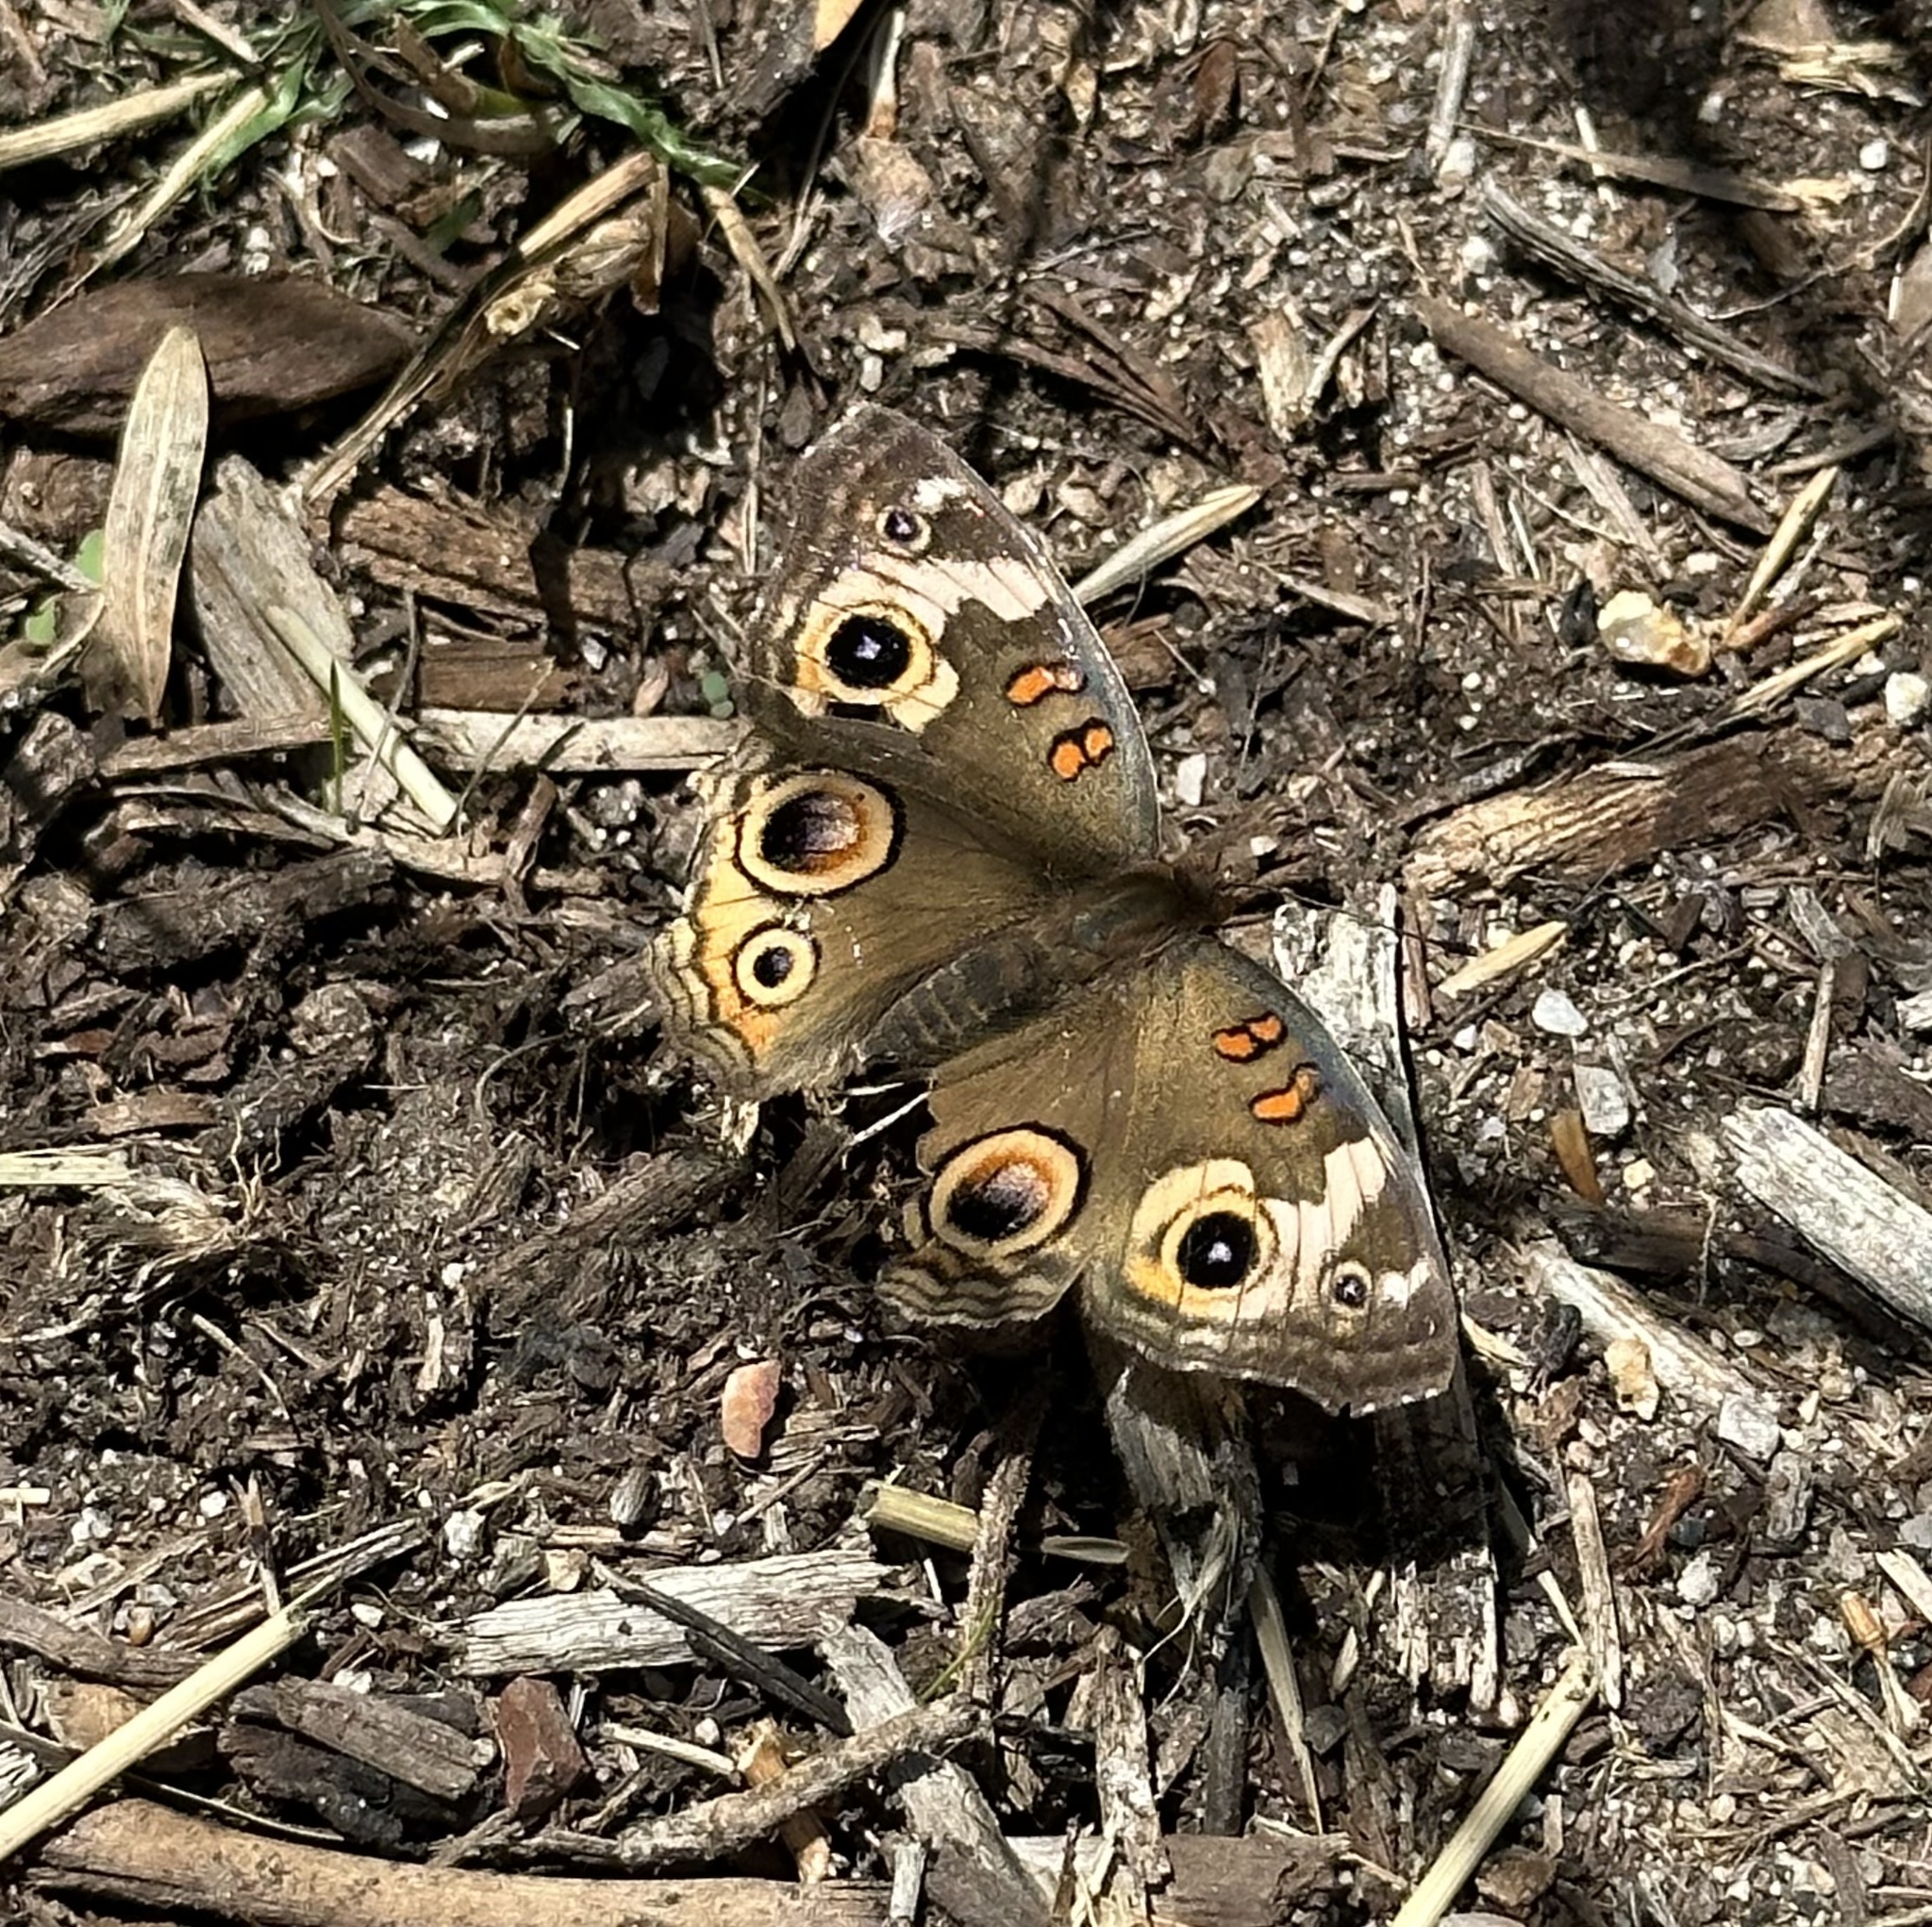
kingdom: Animalia
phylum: Arthropoda
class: Insecta
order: Lepidoptera
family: Nymphalidae
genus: Junonia
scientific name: Junonia grisea
